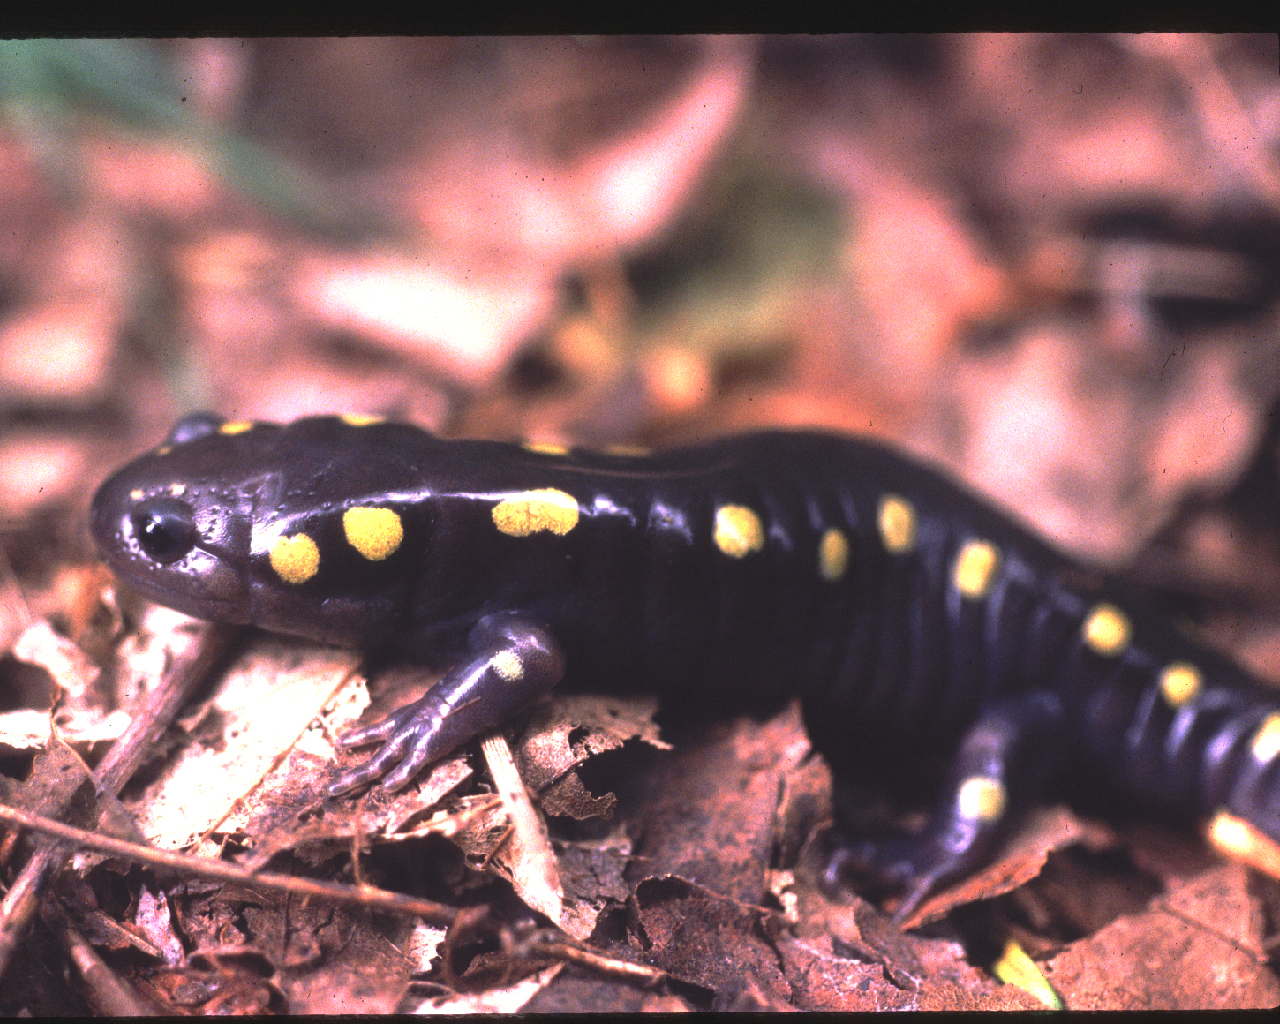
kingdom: Animalia
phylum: Chordata
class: Amphibia
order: Caudata
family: Ambystomatidae
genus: Ambystoma
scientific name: Ambystoma maculatum
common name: Spotted salamander
